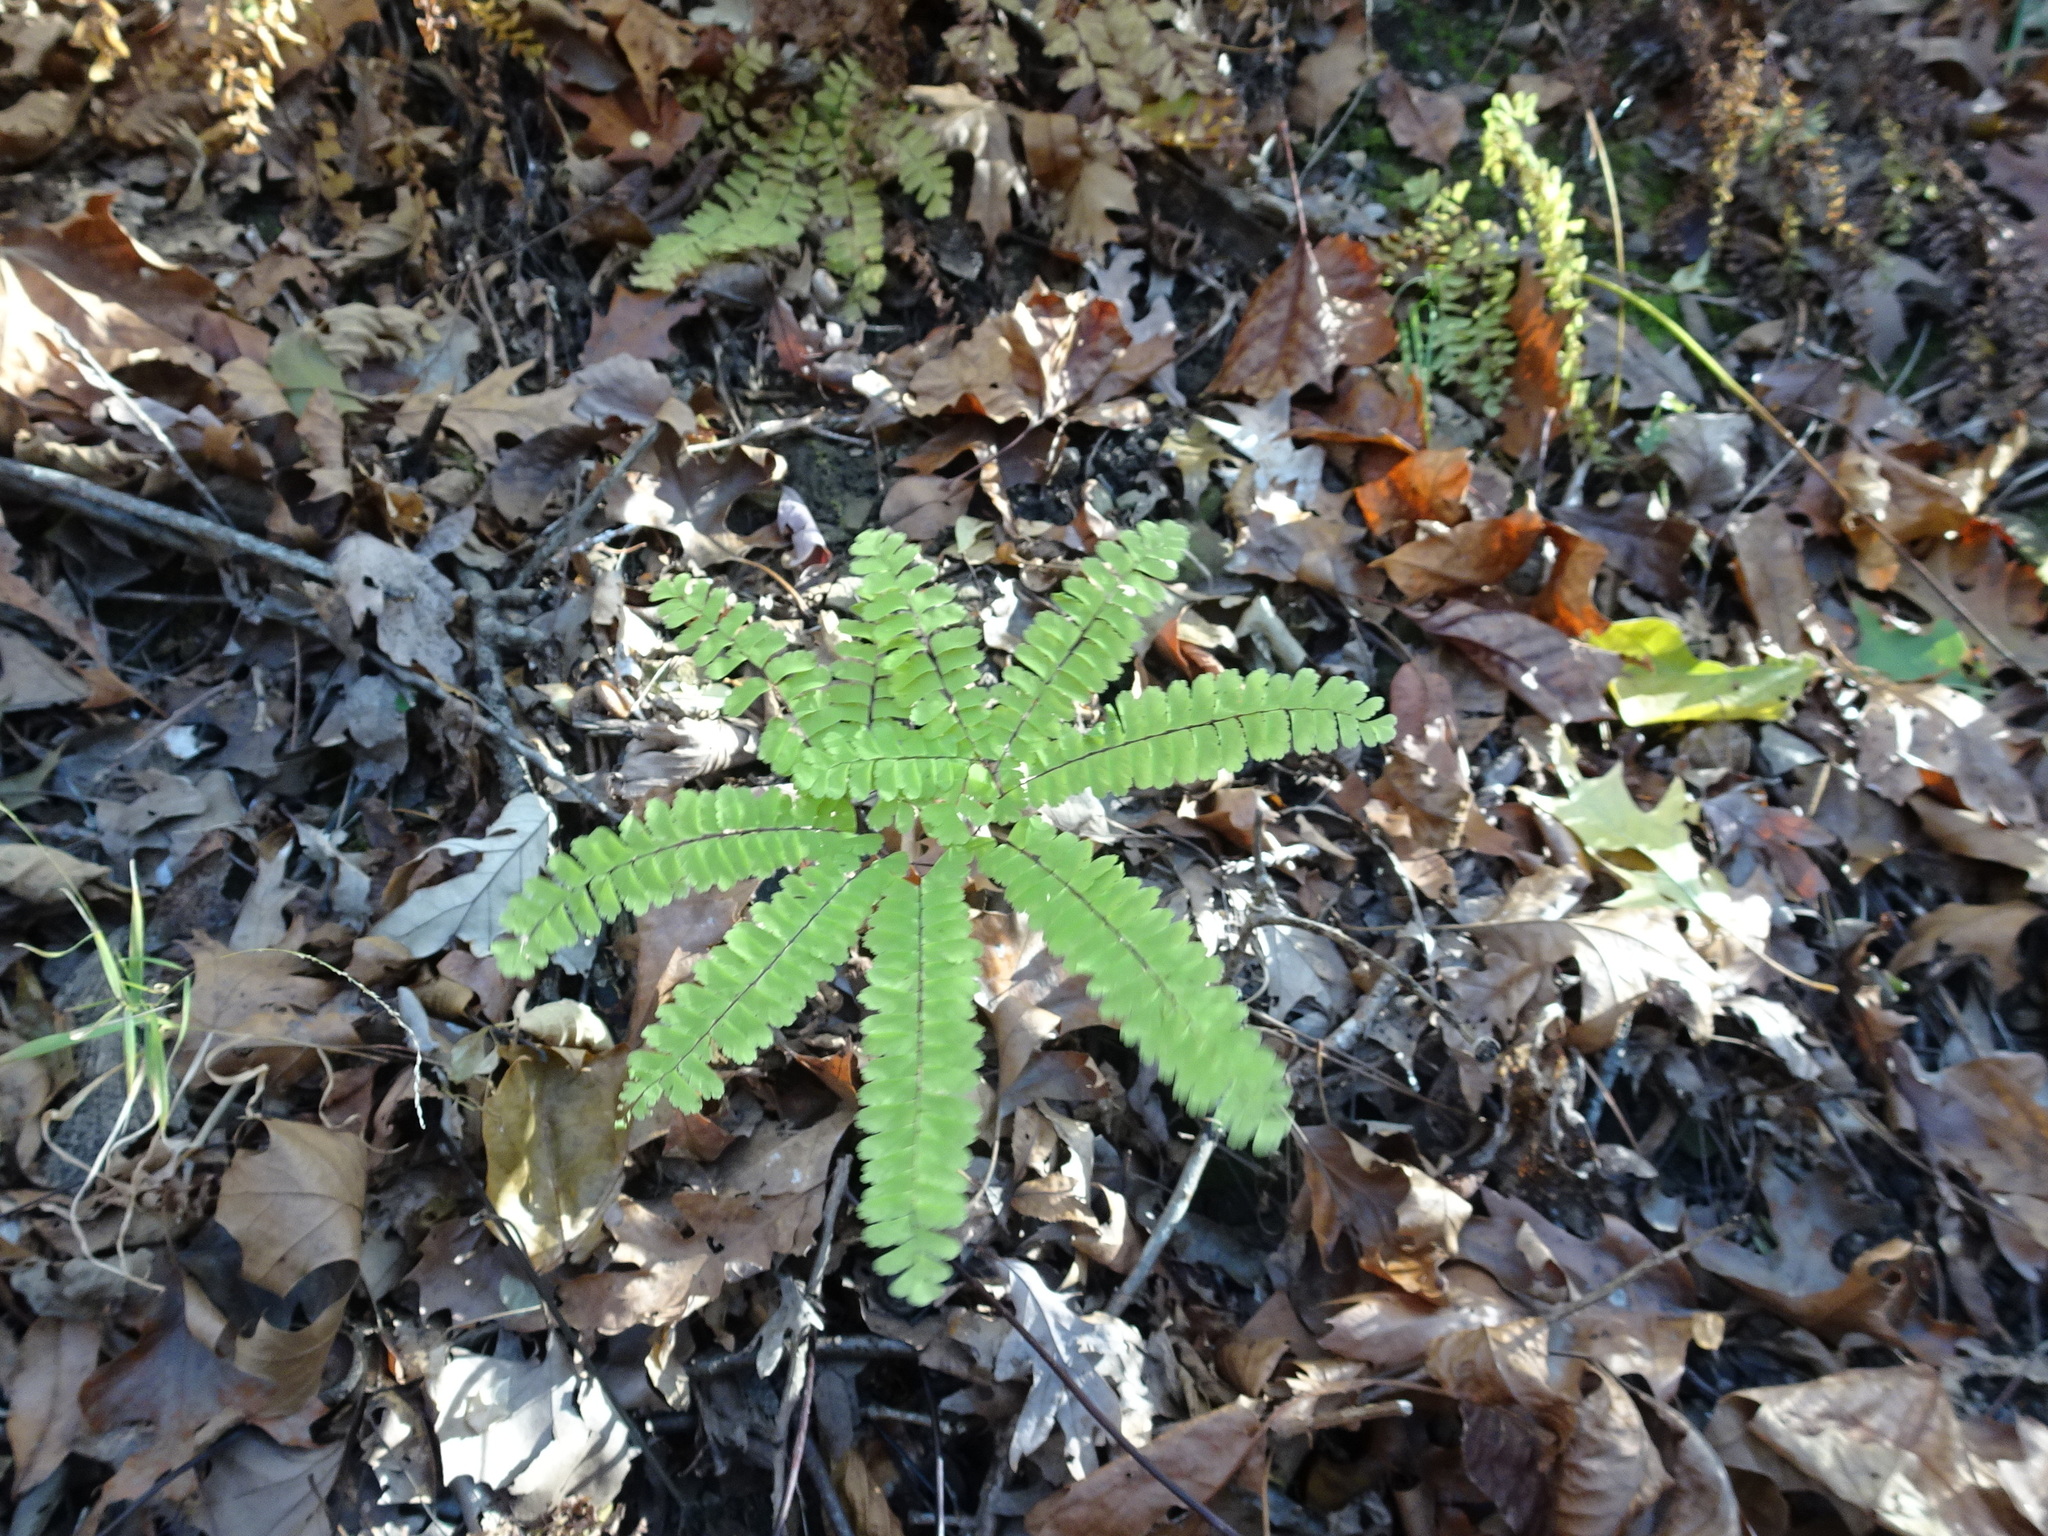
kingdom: Plantae
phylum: Tracheophyta
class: Polypodiopsida
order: Polypodiales
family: Pteridaceae
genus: Adiantum
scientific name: Adiantum pedatum
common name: Five-finger fern
